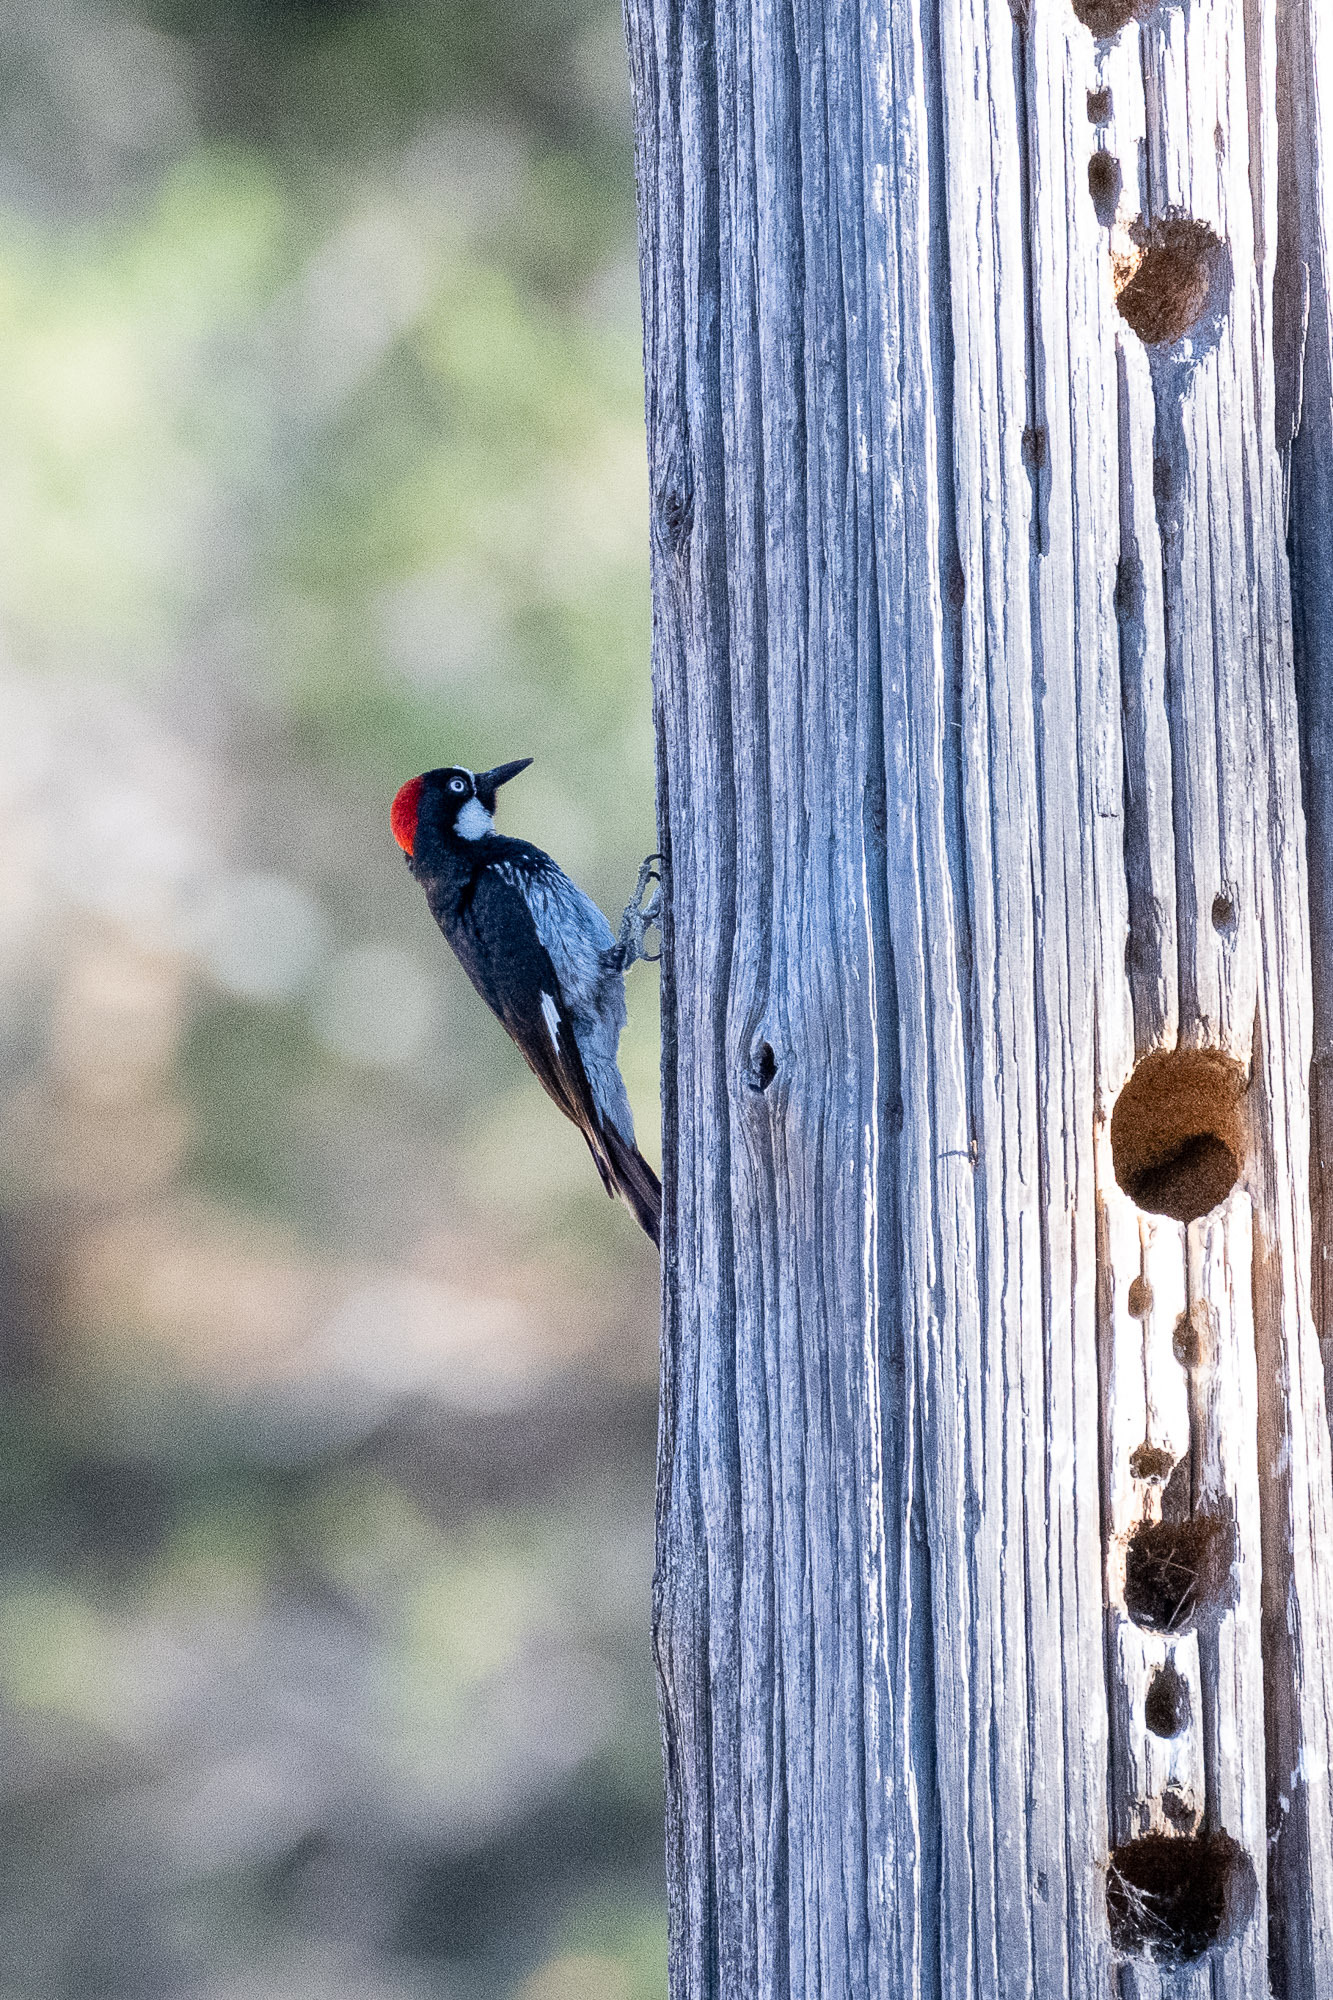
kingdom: Animalia
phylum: Chordata
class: Aves
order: Piciformes
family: Picidae
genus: Melanerpes
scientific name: Melanerpes formicivorus
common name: Acorn woodpecker
